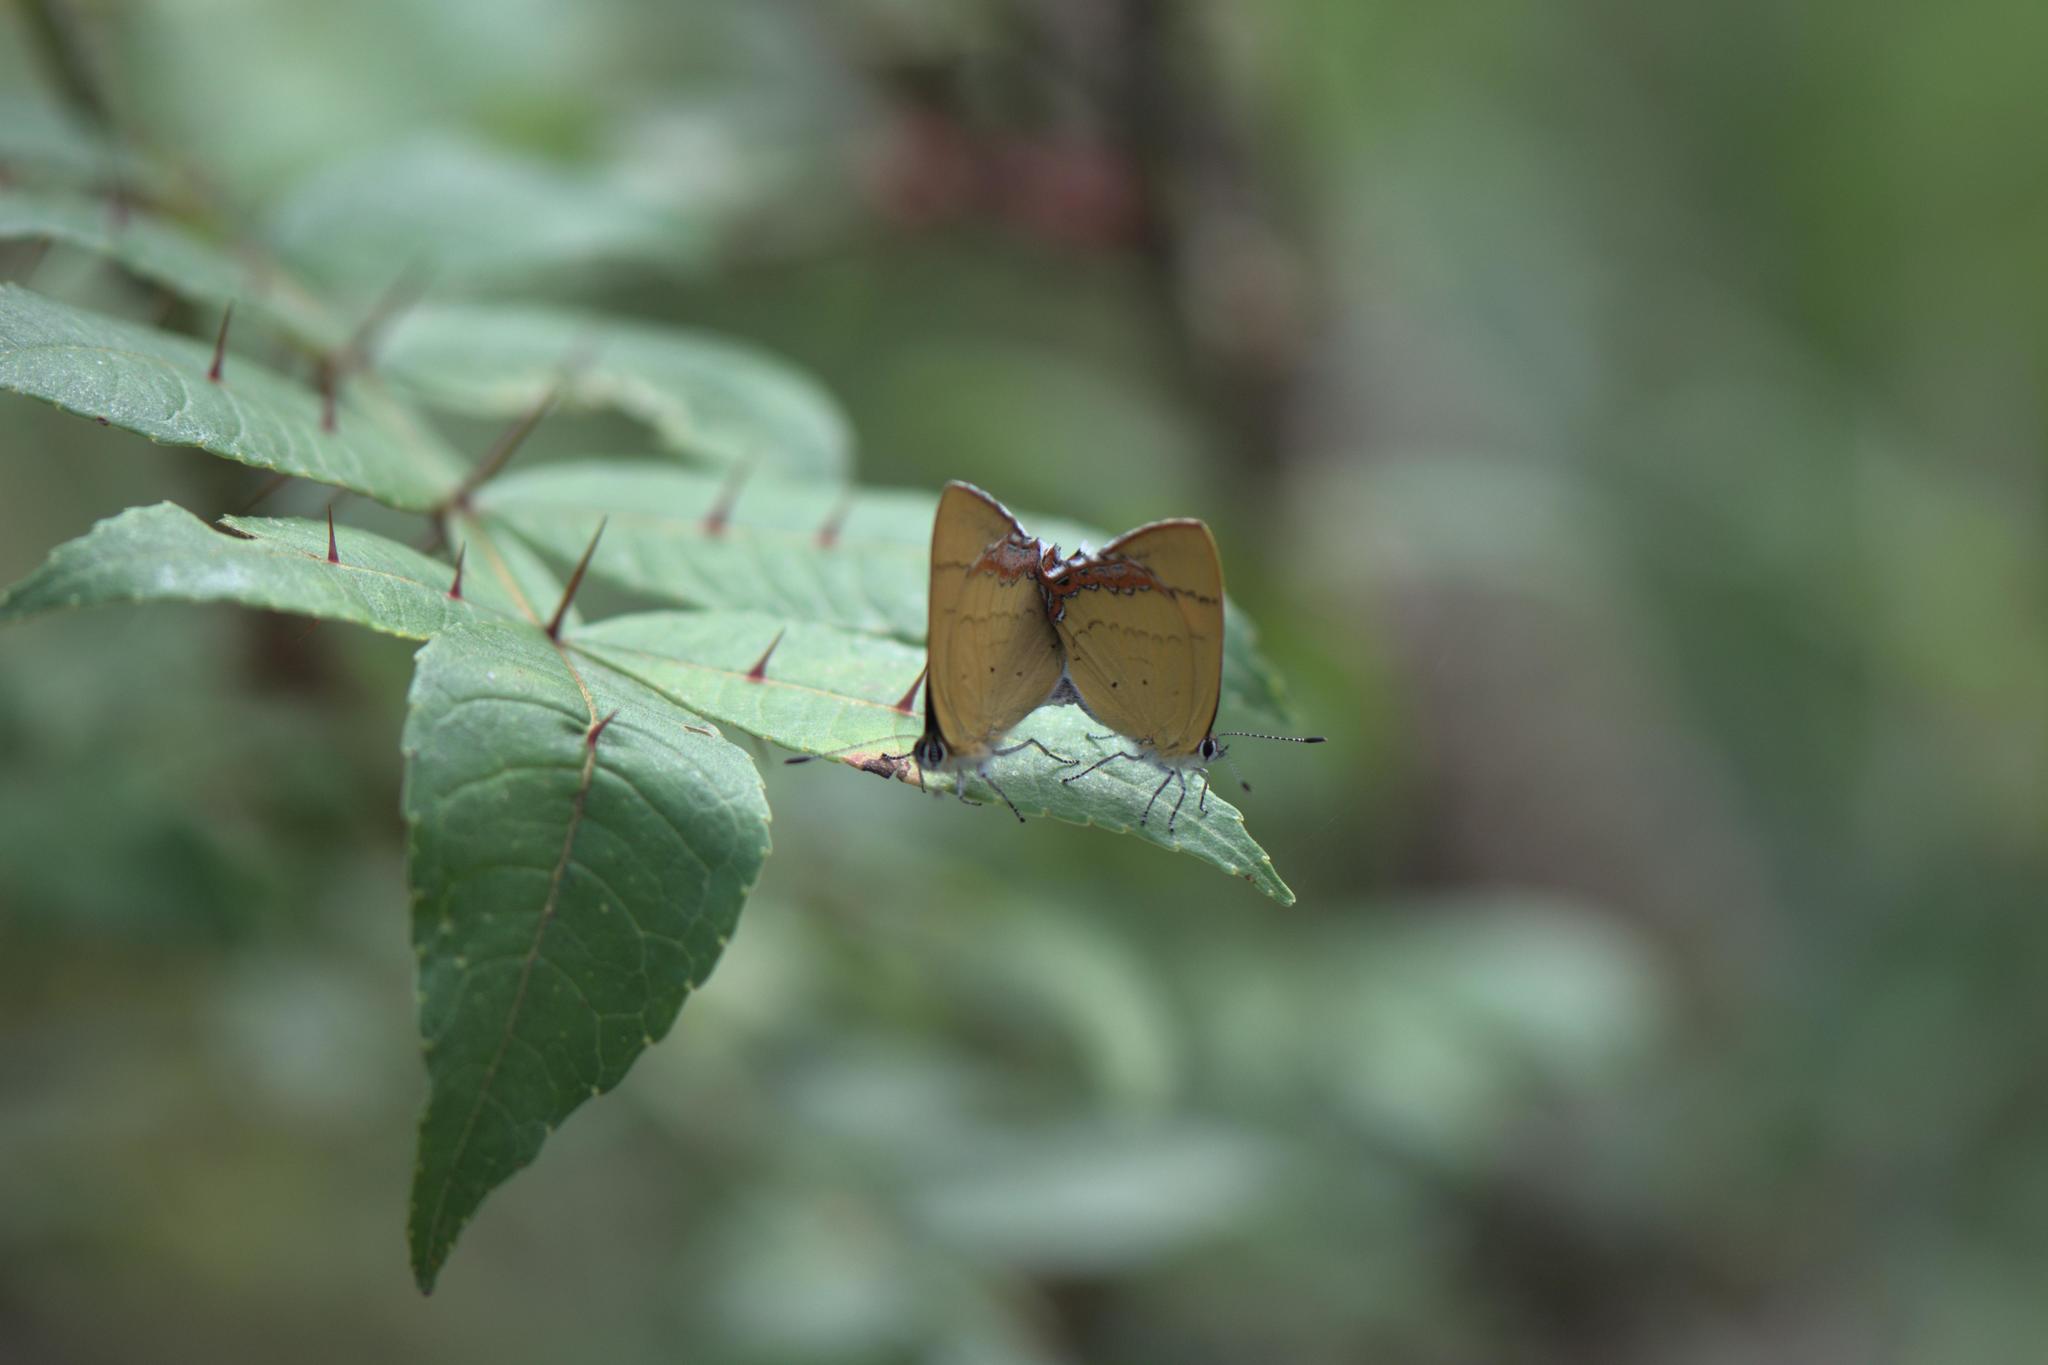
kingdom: Animalia
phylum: Arthropoda
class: Insecta
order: Lepidoptera
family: Lycaenidae
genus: Heliophorus
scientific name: Heliophorus
